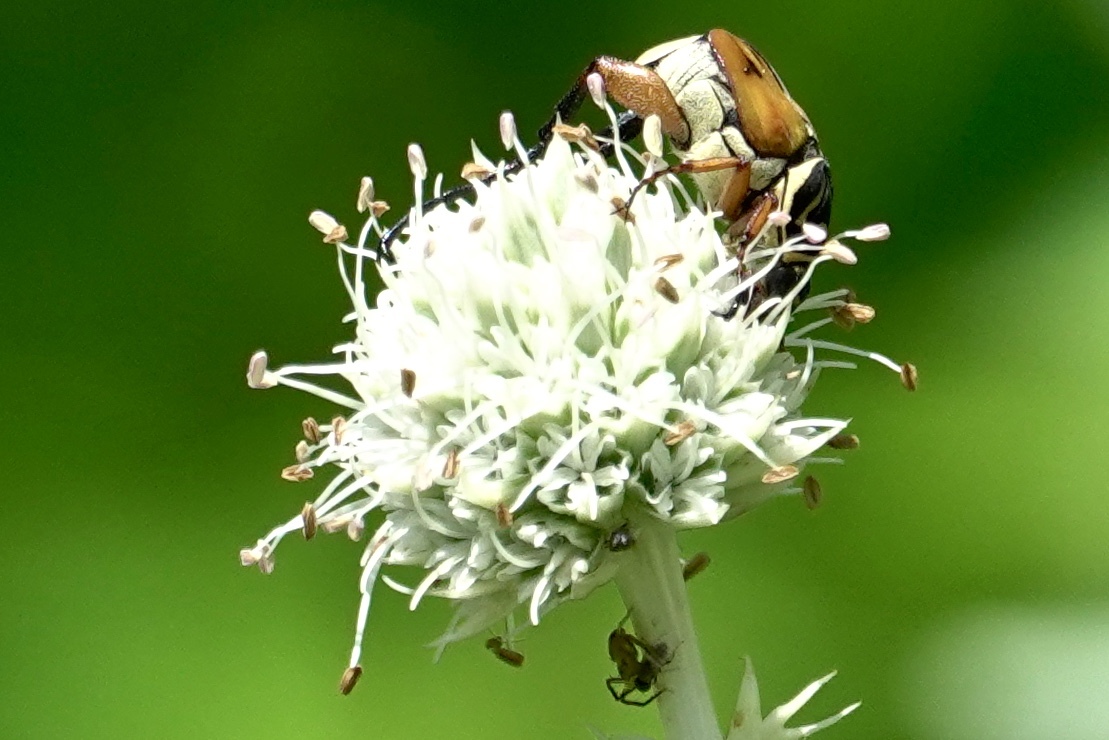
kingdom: Animalia
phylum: Arthropoda
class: Insecta
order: Coleoptera
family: Scarabaeidae
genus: Trigonopeltastes
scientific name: Trigonopeltastes delta
